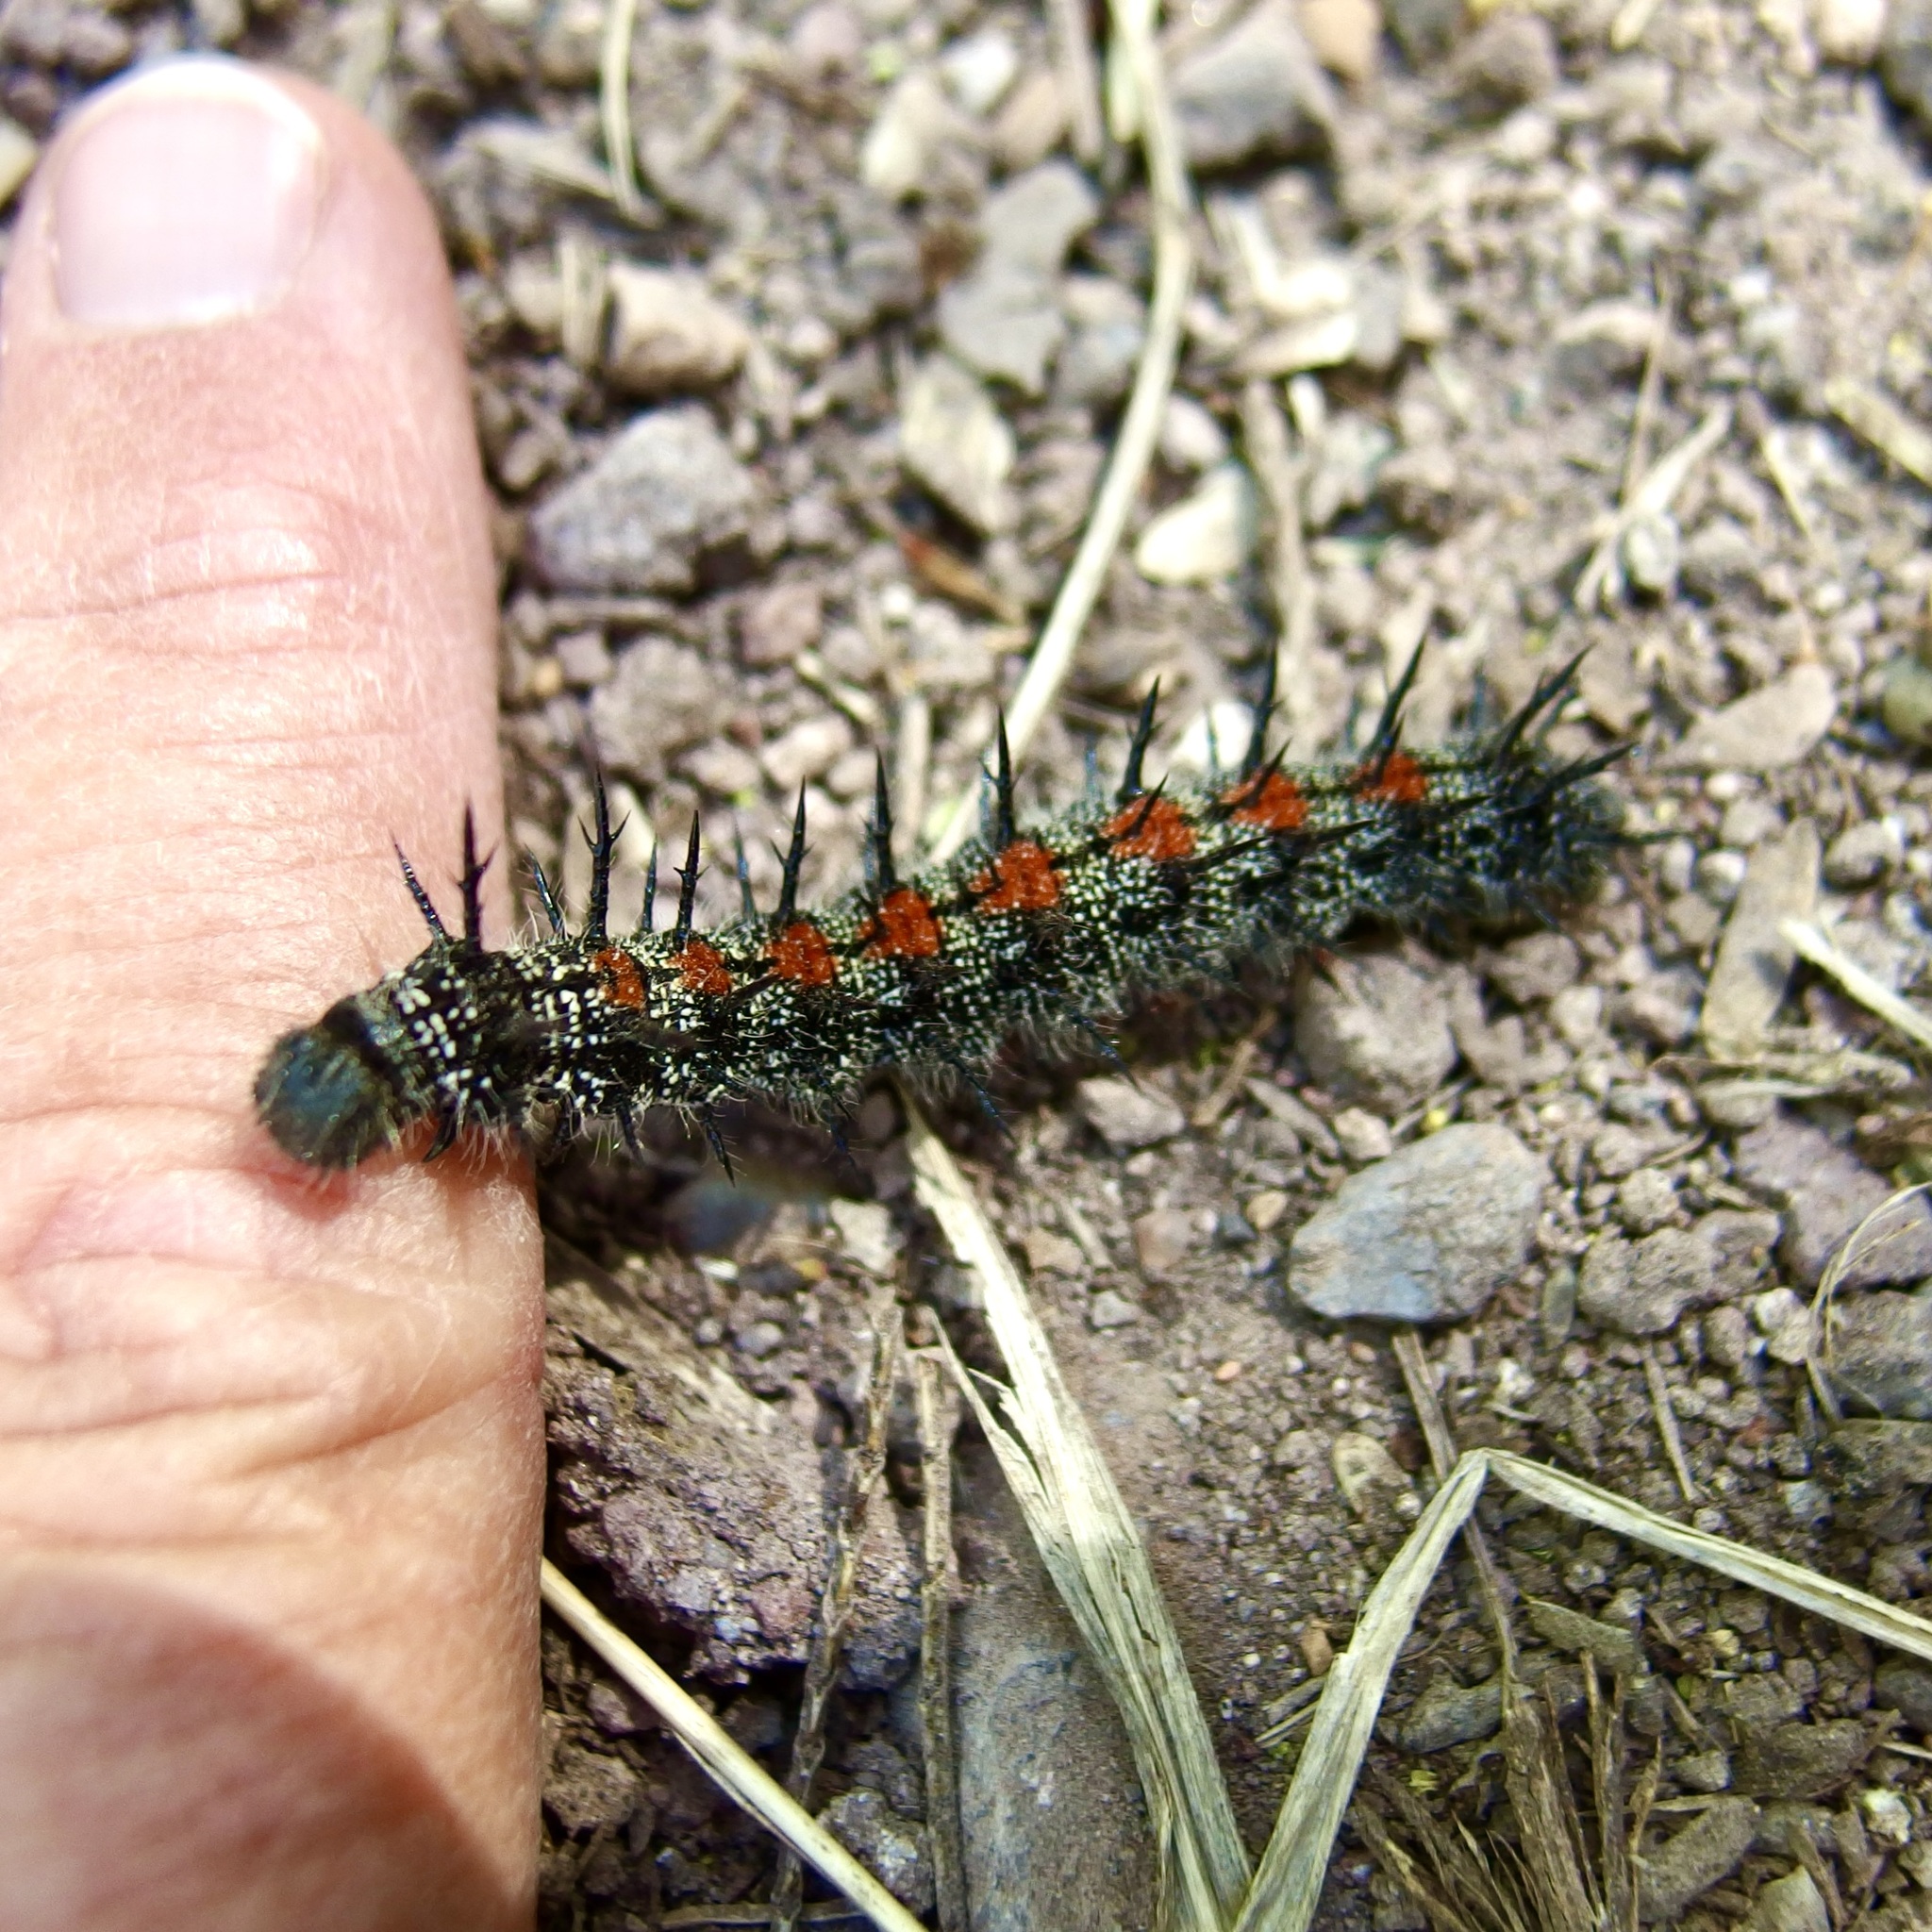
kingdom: Animalia
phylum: Arthropoda
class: Insecta
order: Lepidoptera
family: Nymphalidae
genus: Nymphalis
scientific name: Nymphalis antiopa
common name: Camberwell beauty
